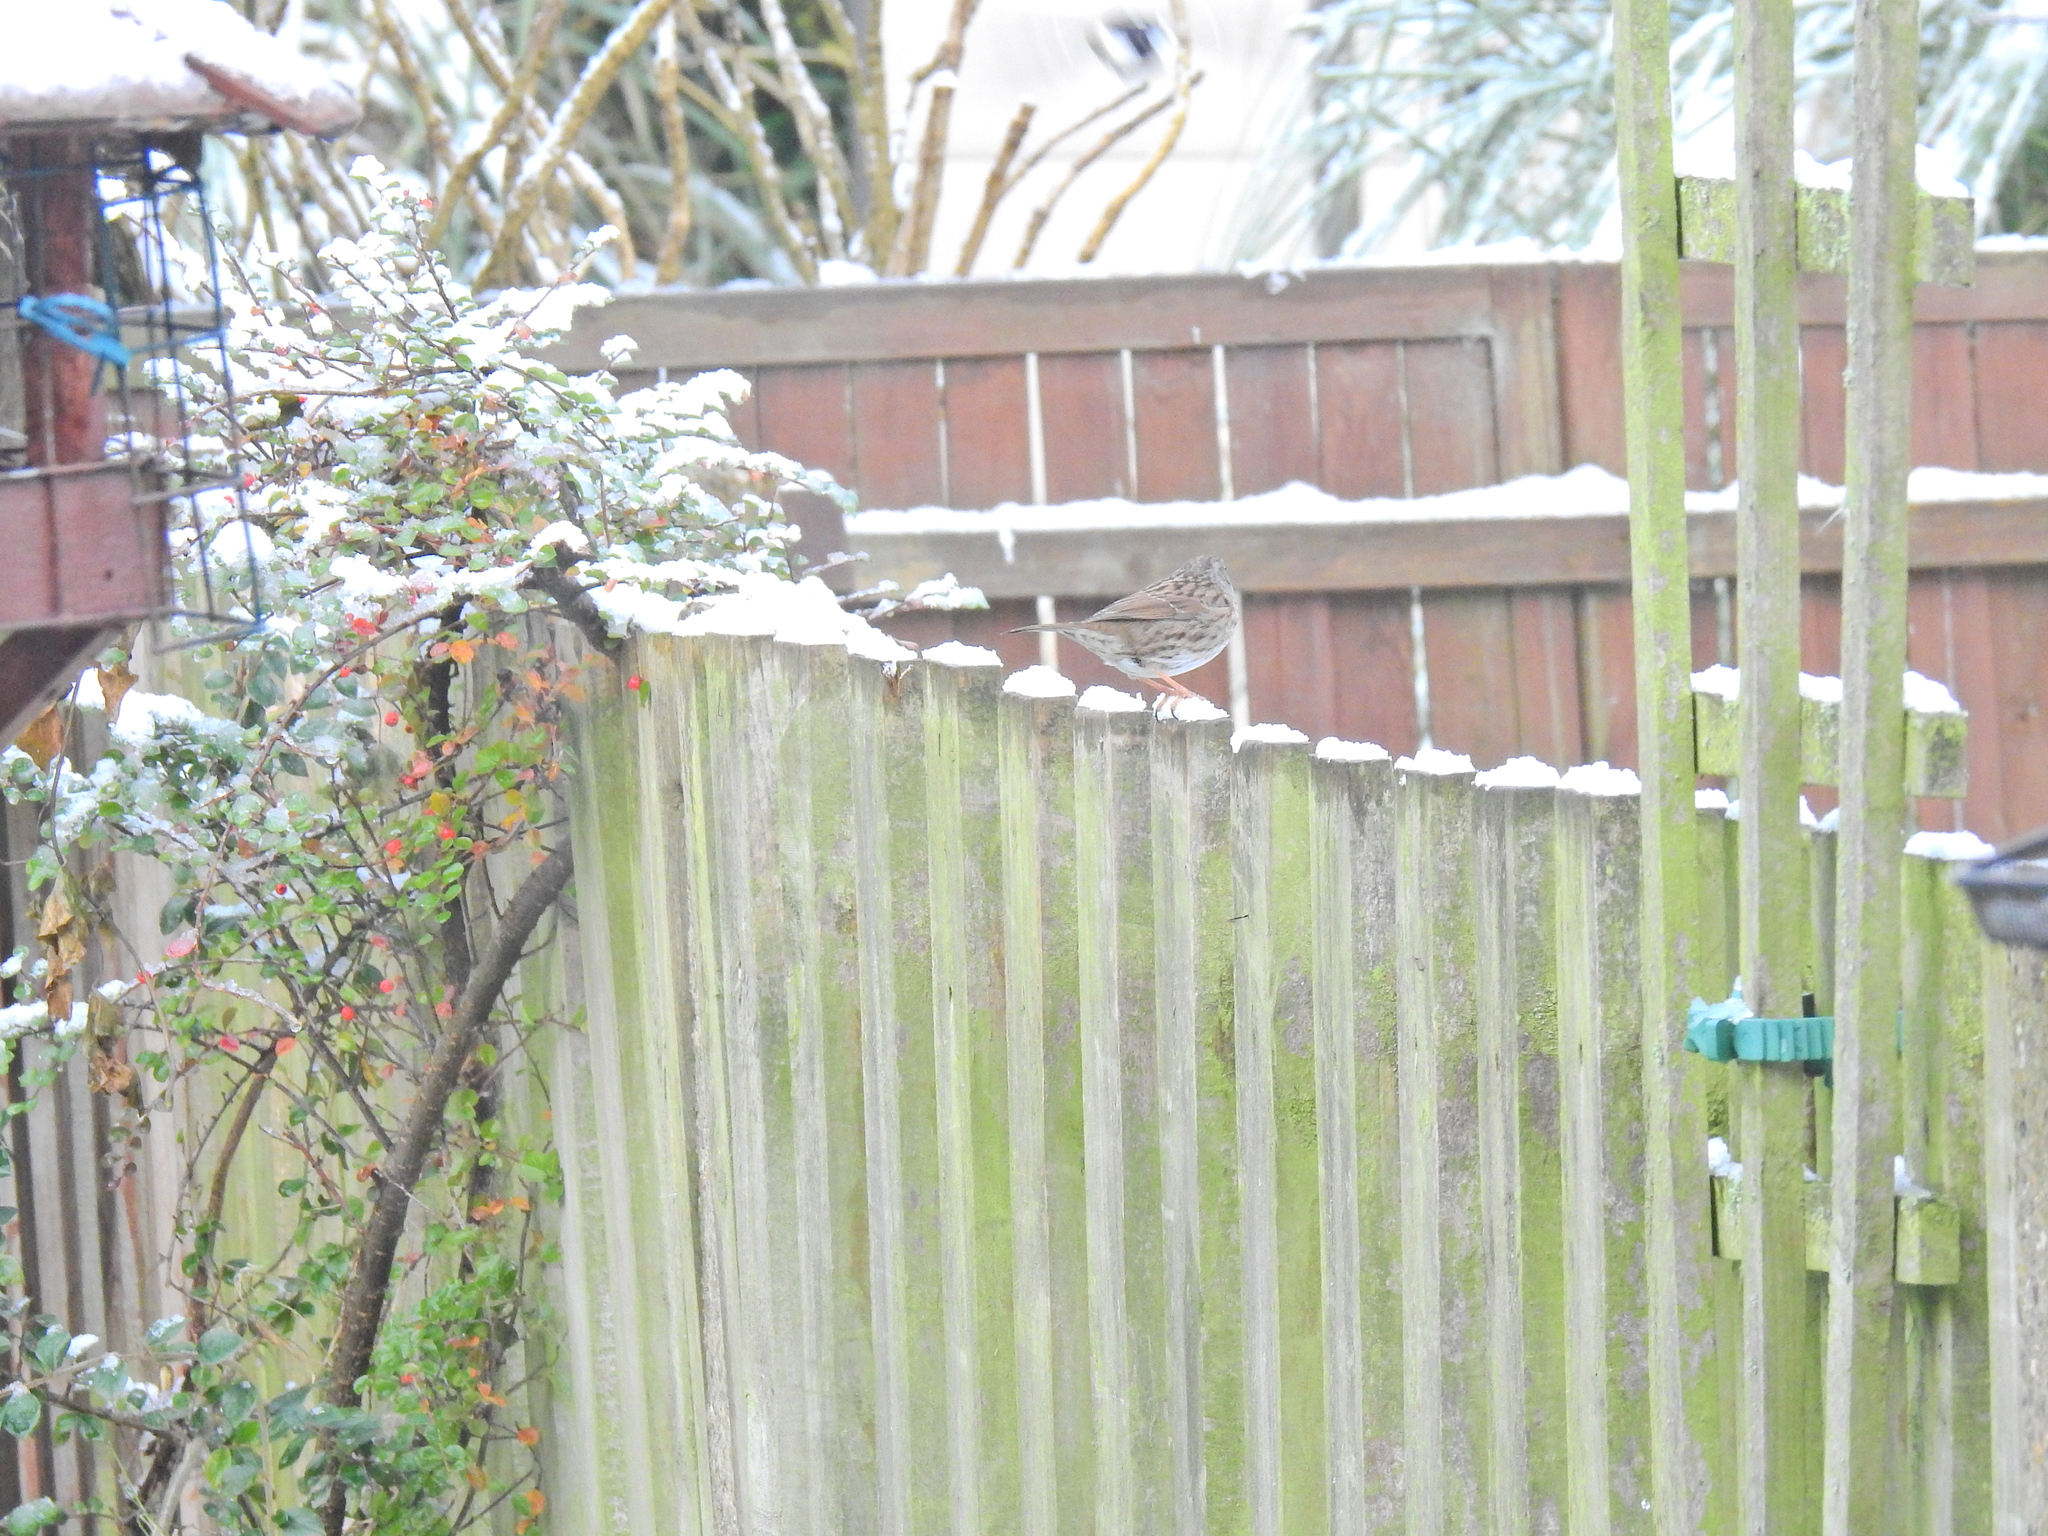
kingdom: Animalia
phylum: Chordata
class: Aves
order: Passeriformes
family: Prunellidae
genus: Prunella
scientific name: Prunella modularis
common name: Dunnock
